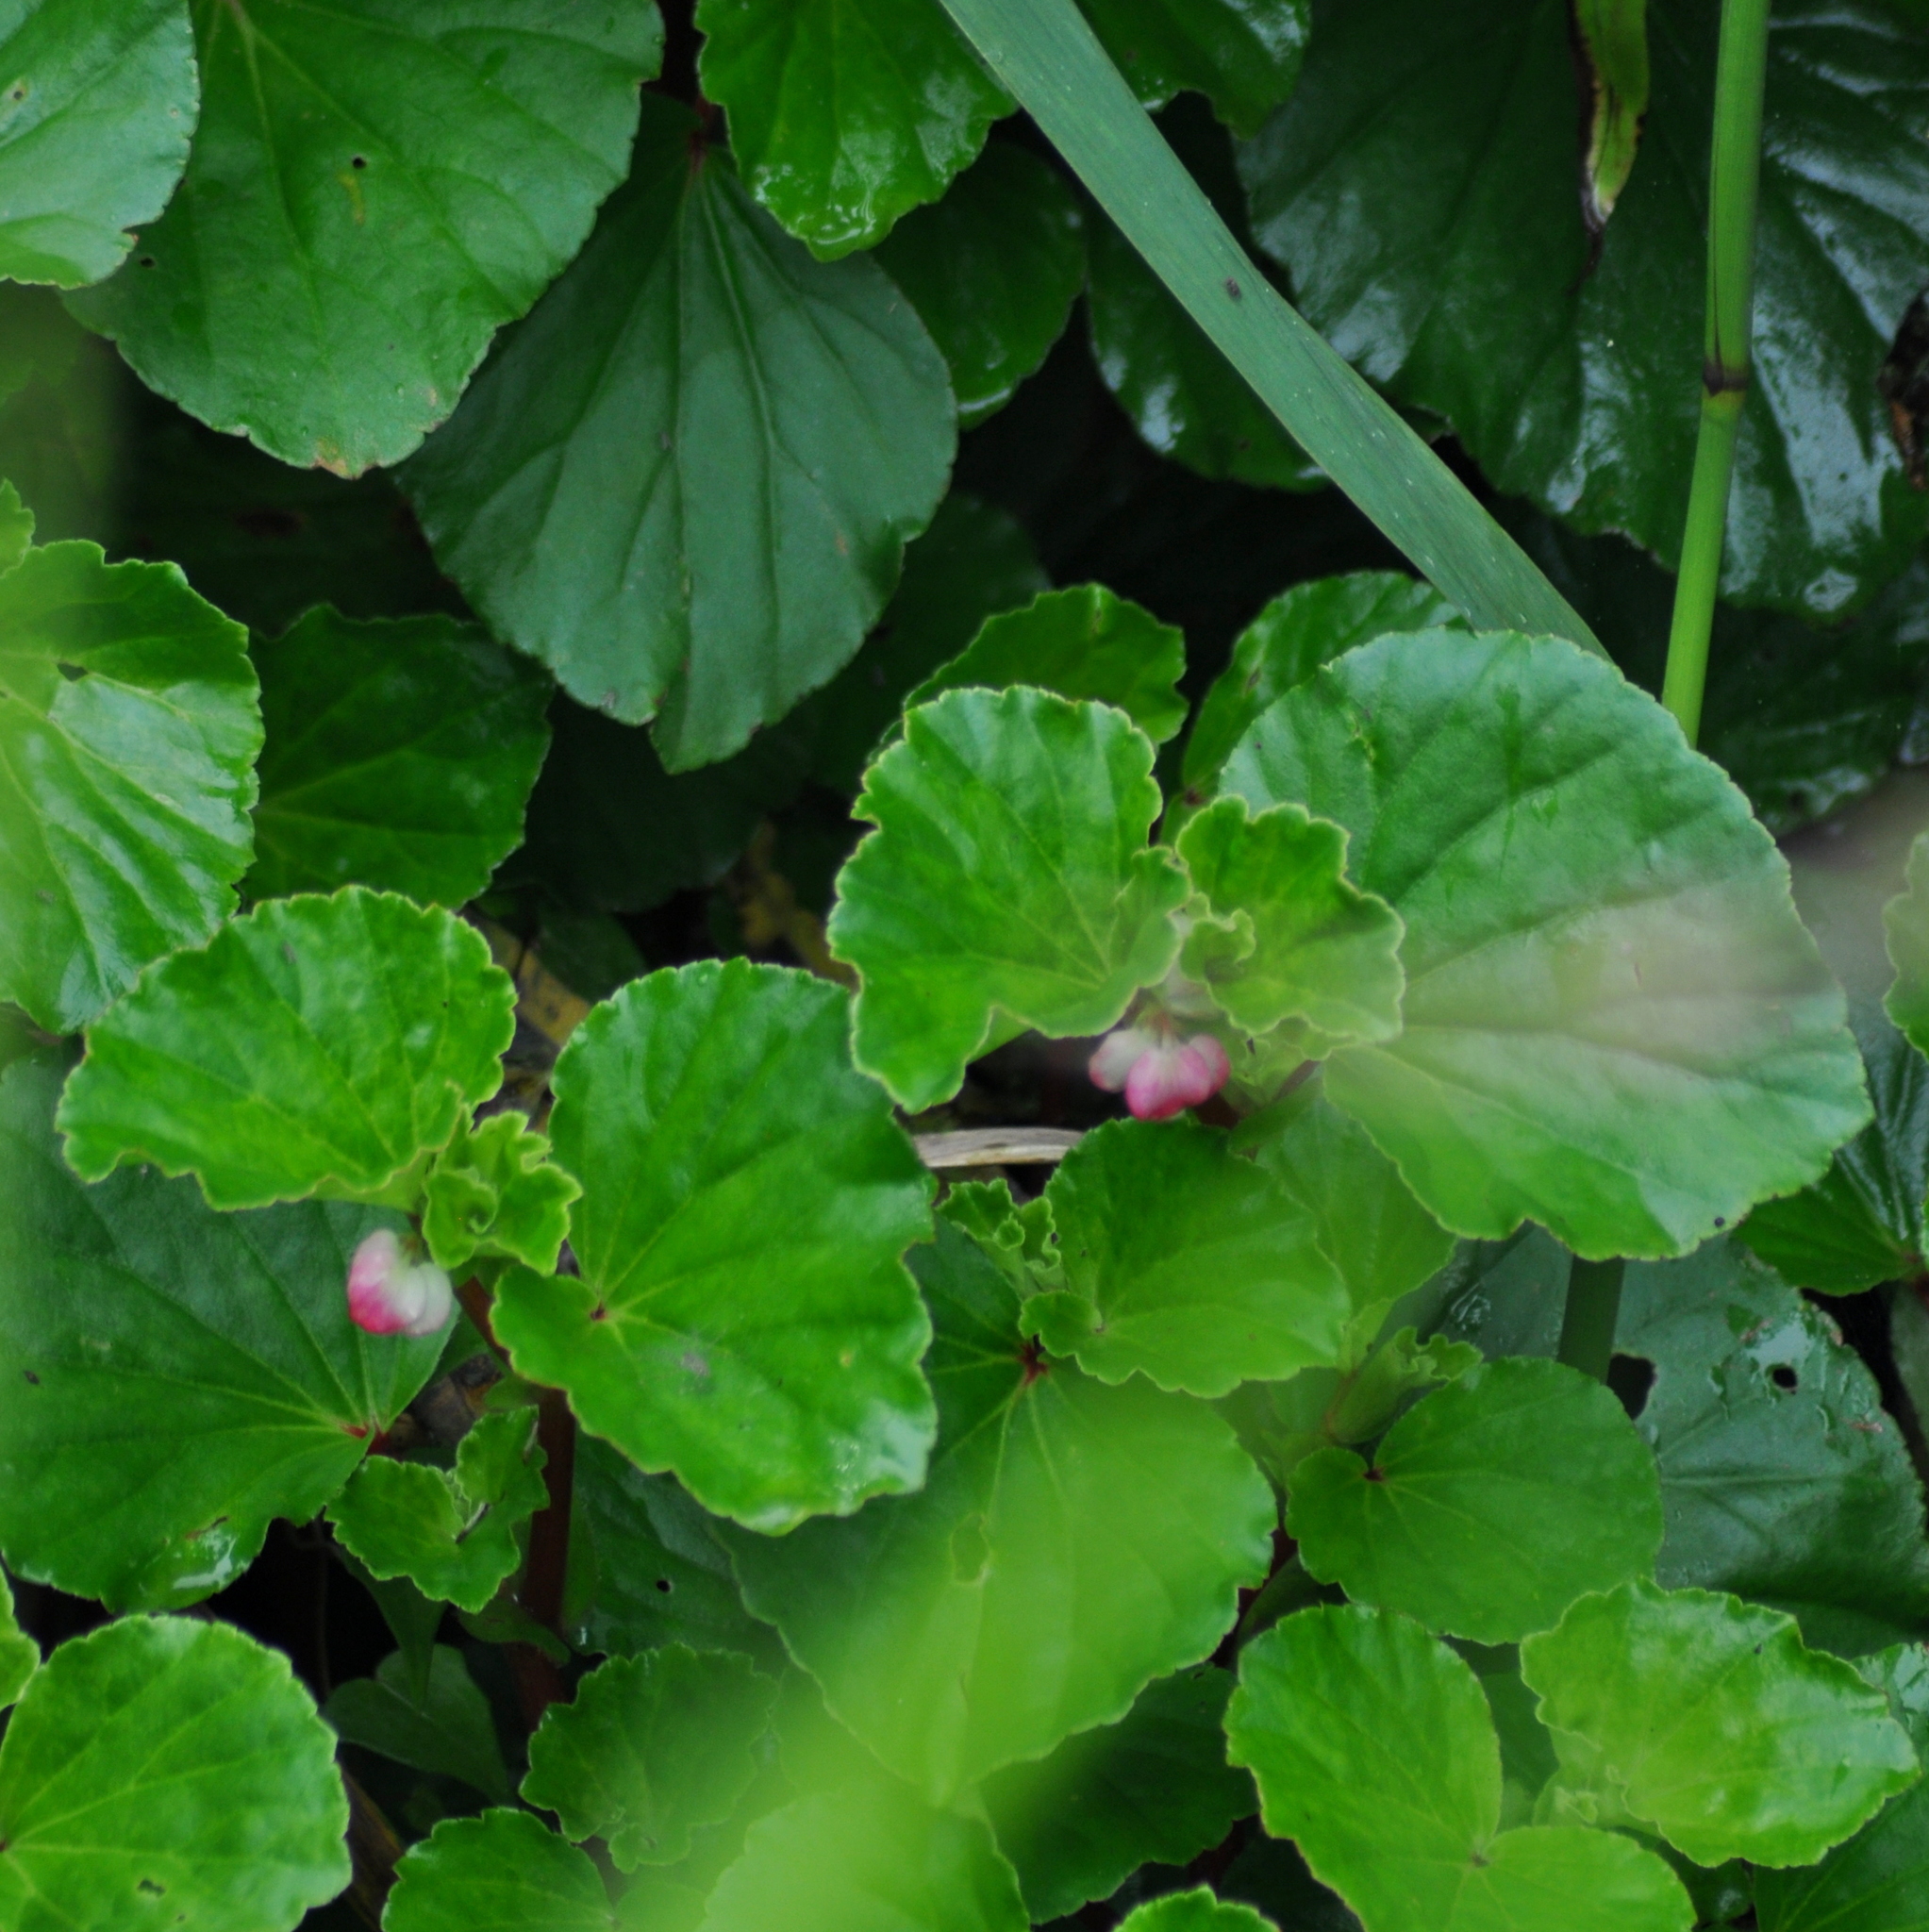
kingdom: Plantae
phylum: Tracheophyta
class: Magnoliopsida
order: Cucurbitales
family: Begoniaceae
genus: Begonia
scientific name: Begonia cucullata
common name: Clubbed begonia
